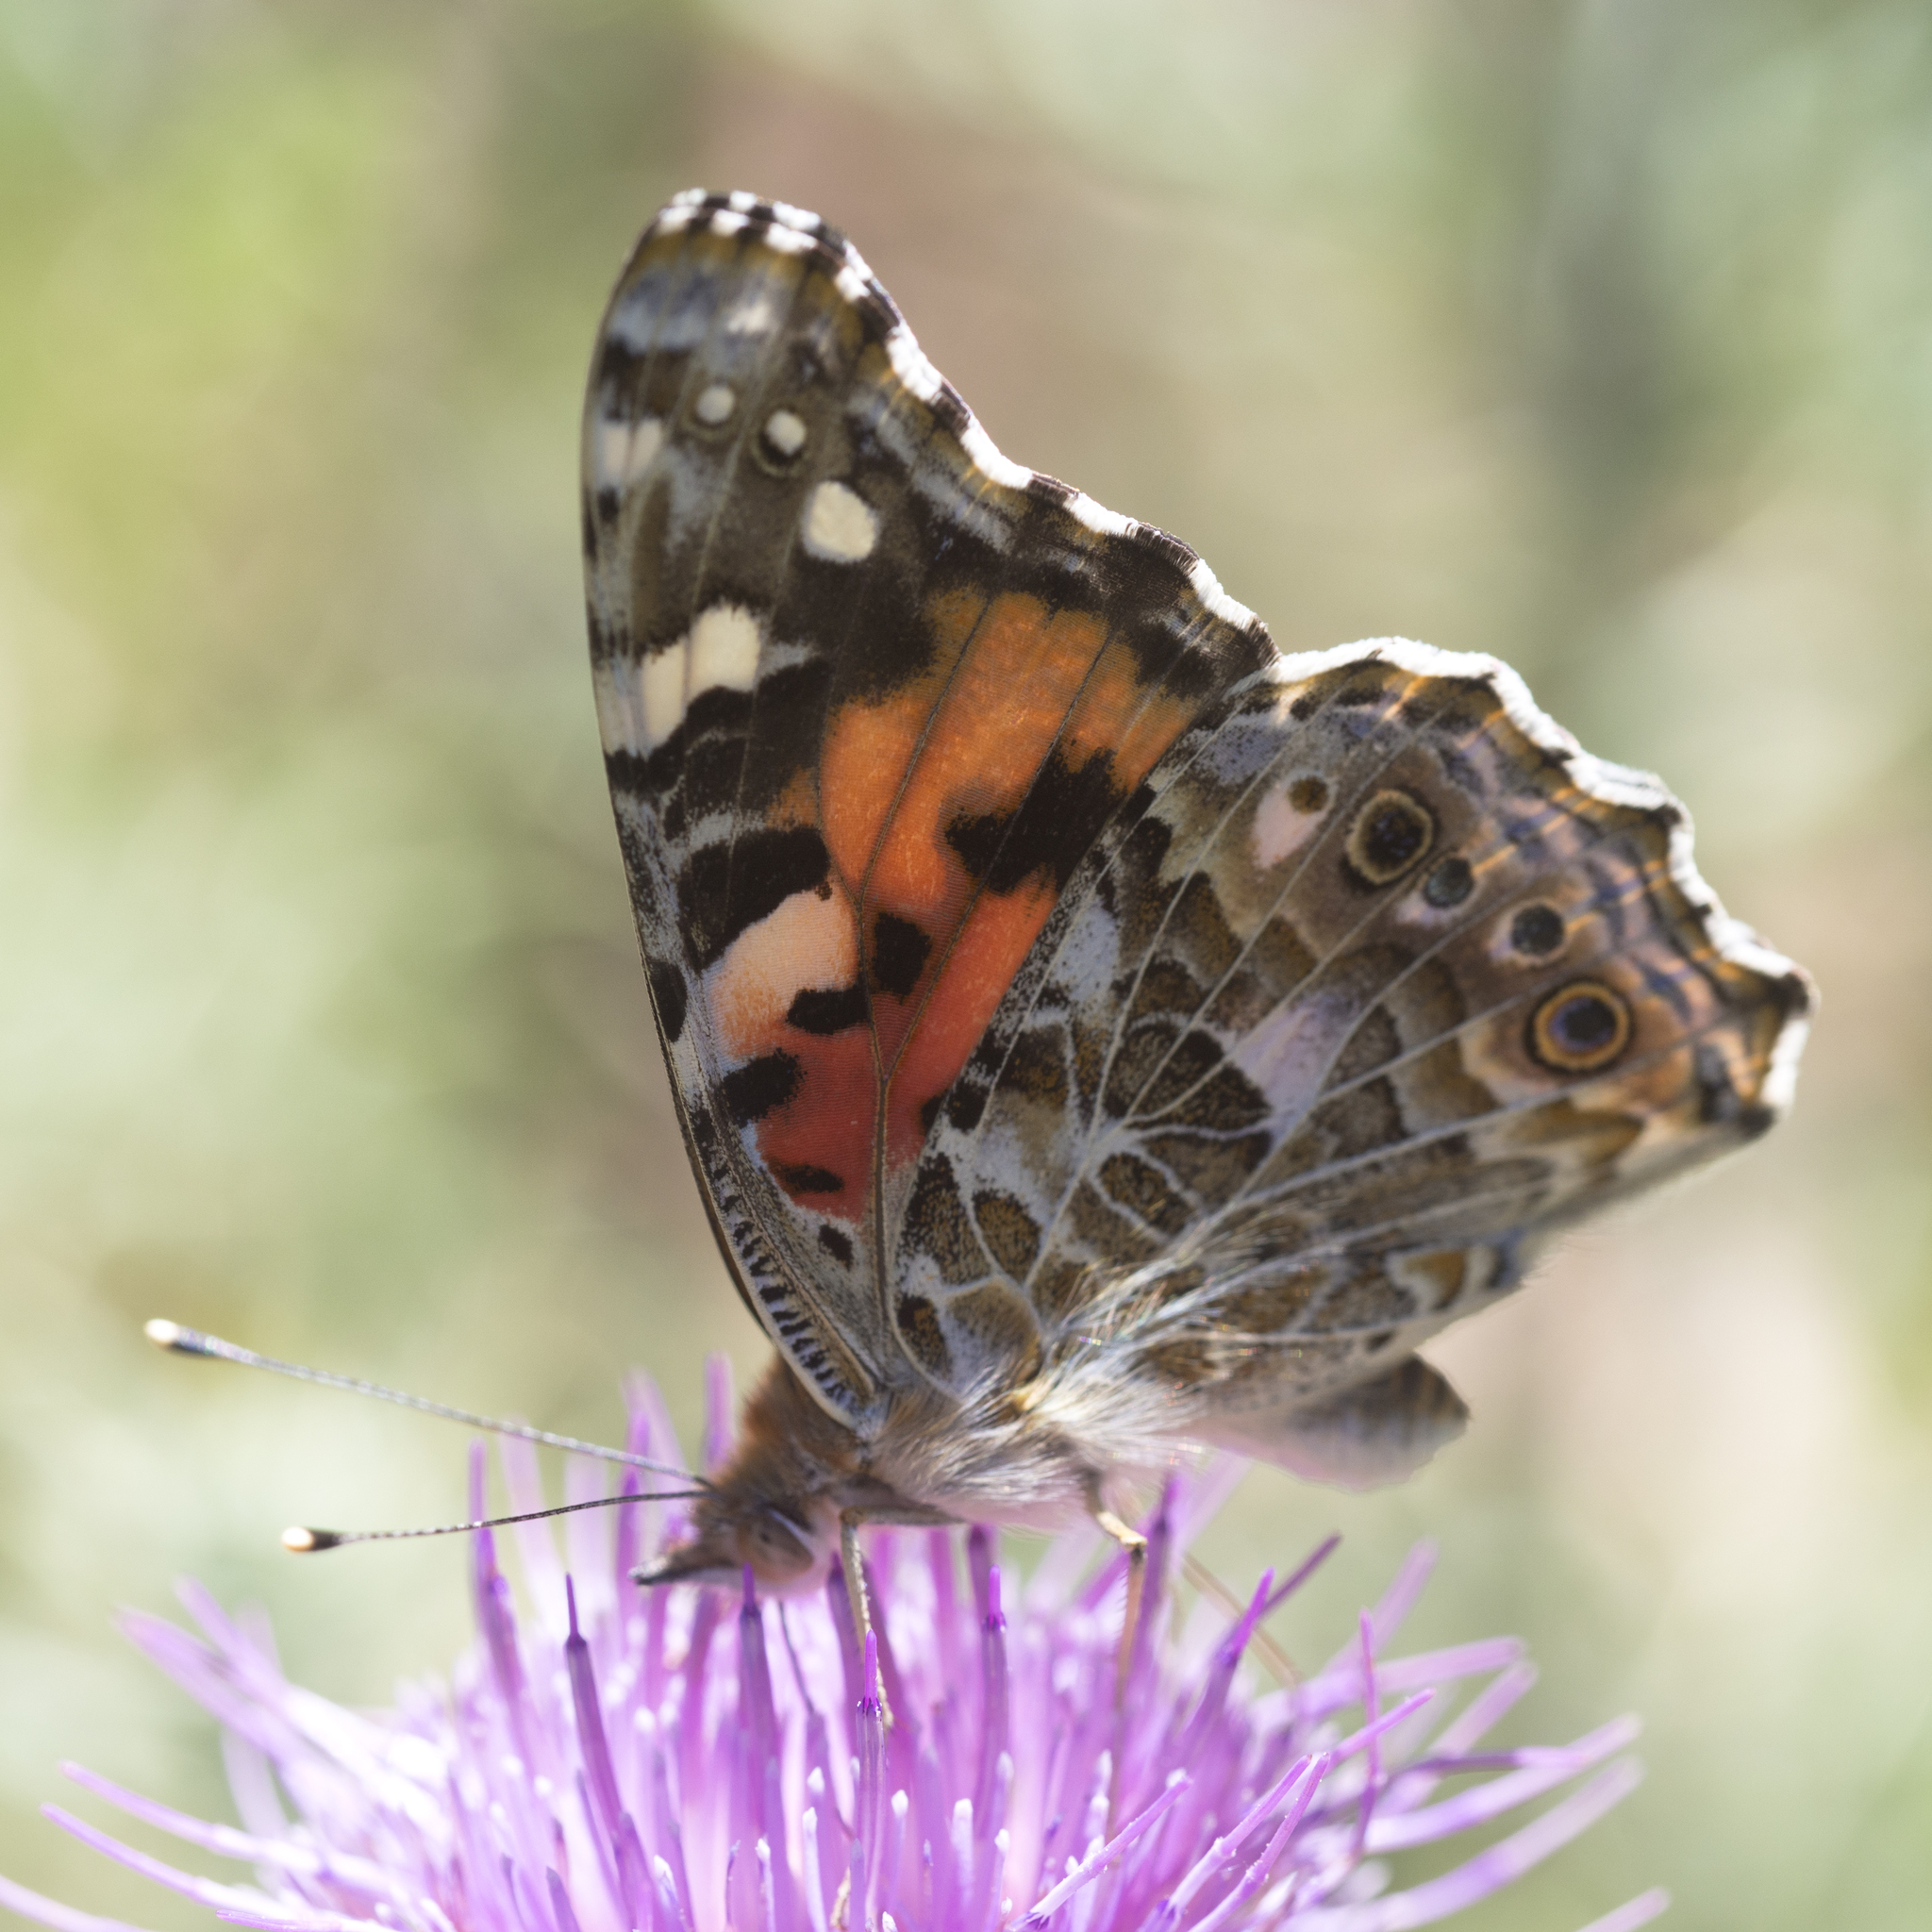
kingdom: Animalia
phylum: Arthropoda
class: Insecta
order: Lepidoptera
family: Nymphalidae
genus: Vanessa
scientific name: Vanessa cardui
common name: Painted lady
